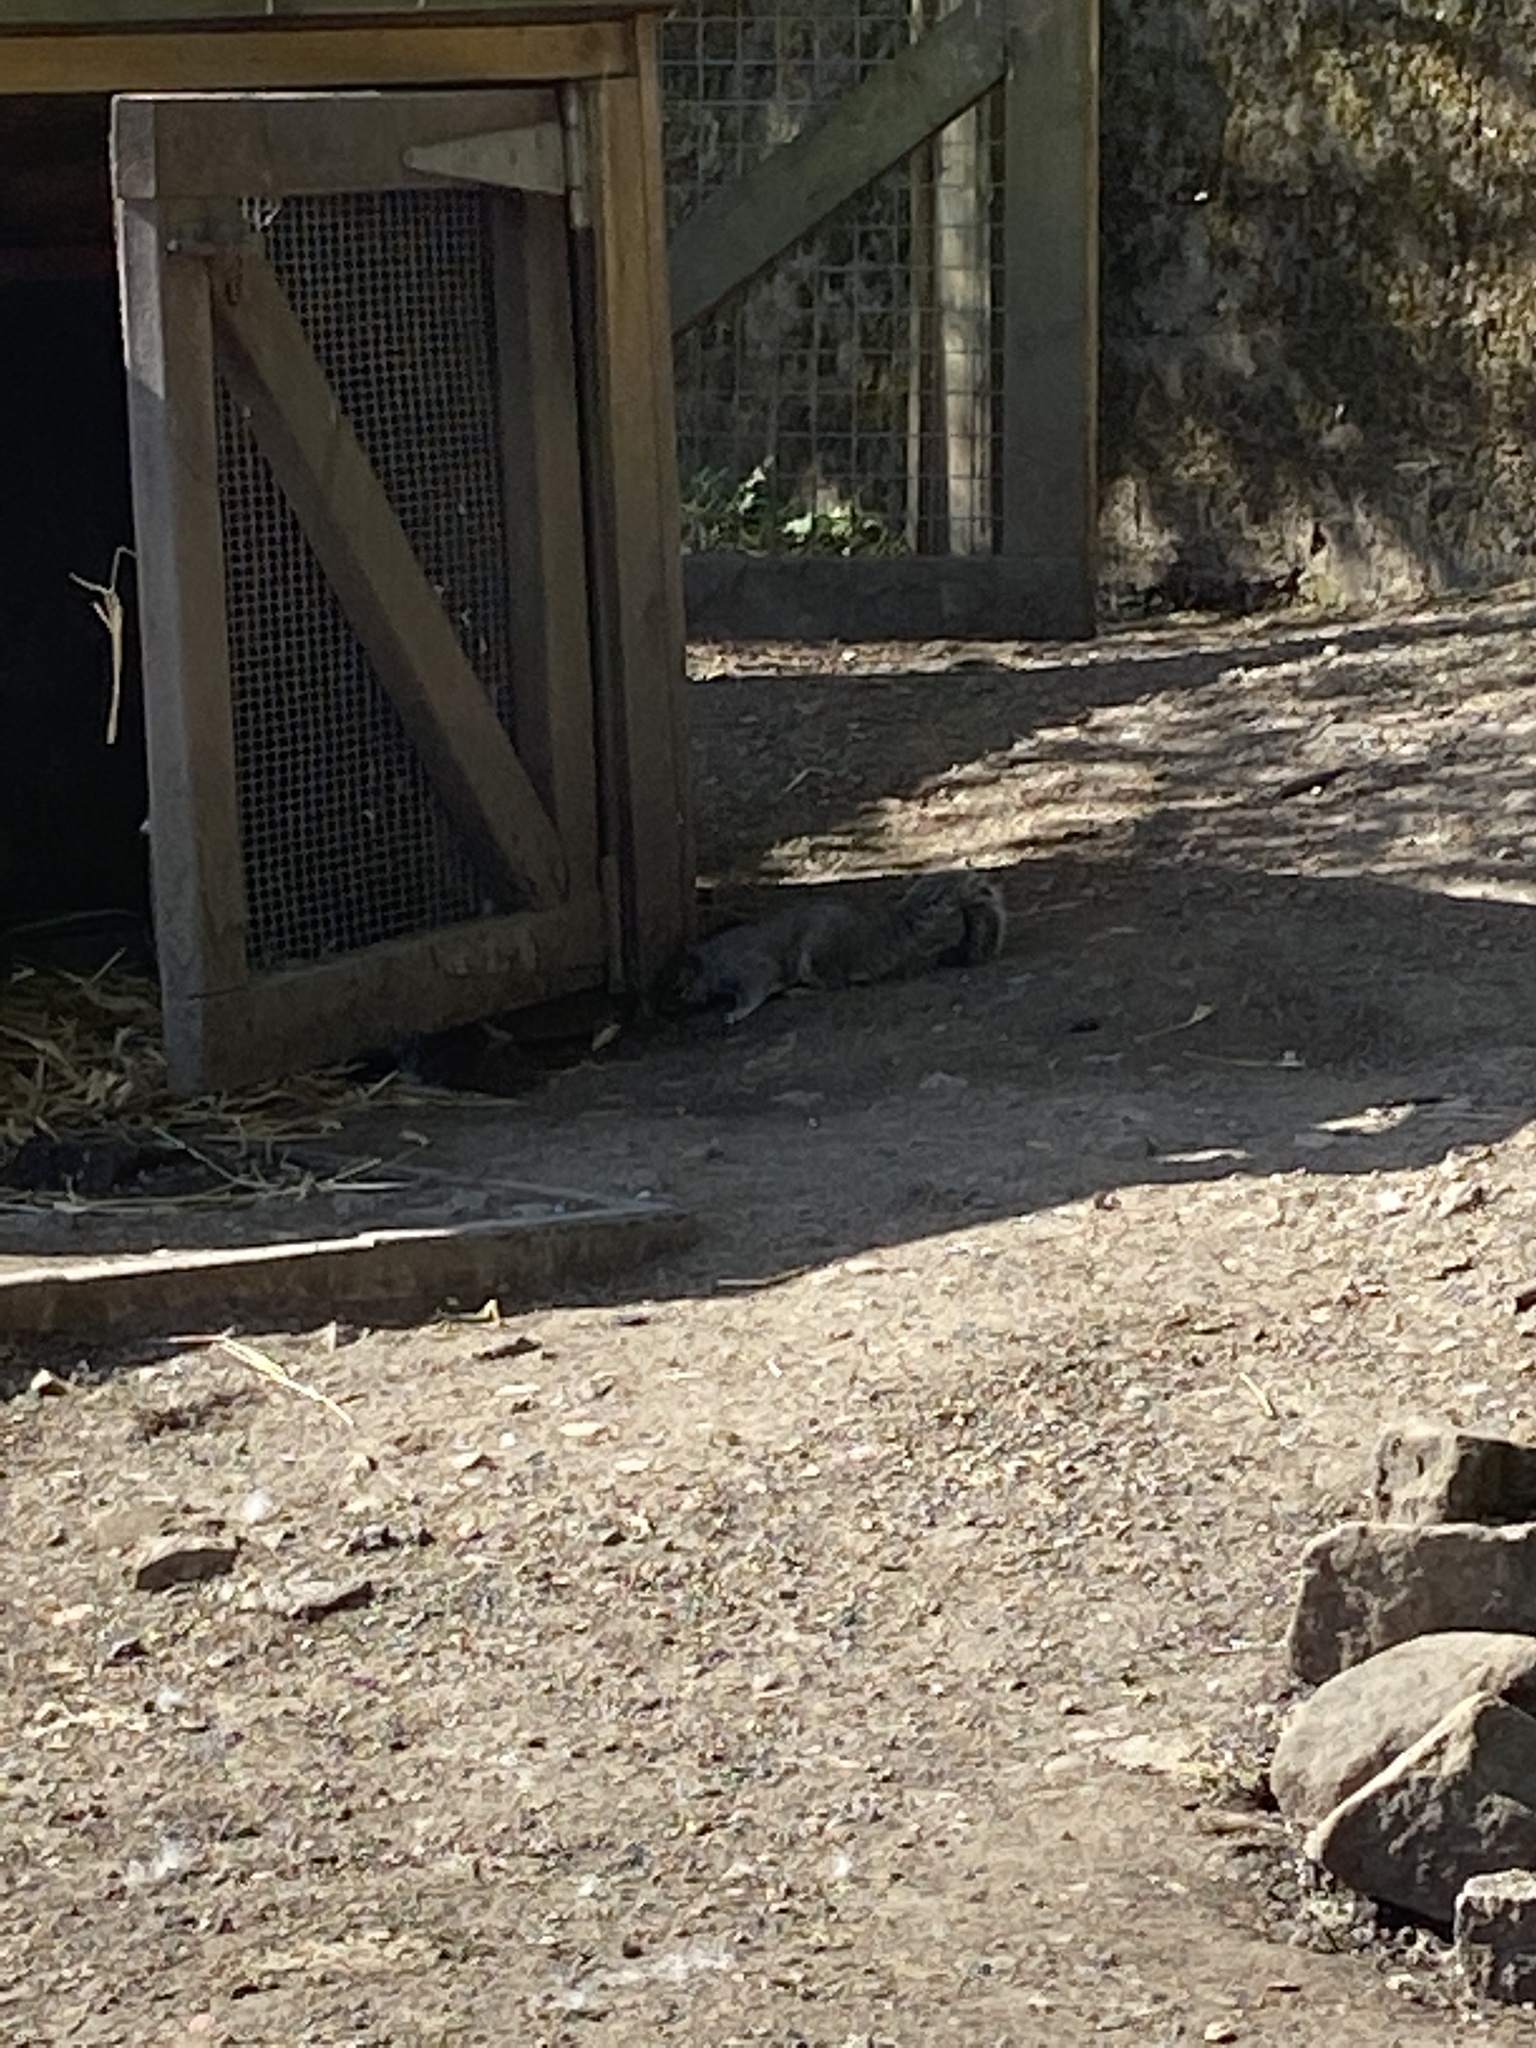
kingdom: Animalia
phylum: Chordata
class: Mammalia
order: Rodentia
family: Sciuridae
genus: Sciurus
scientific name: Sciurus carolinensis
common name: Eastern gray squirrel
